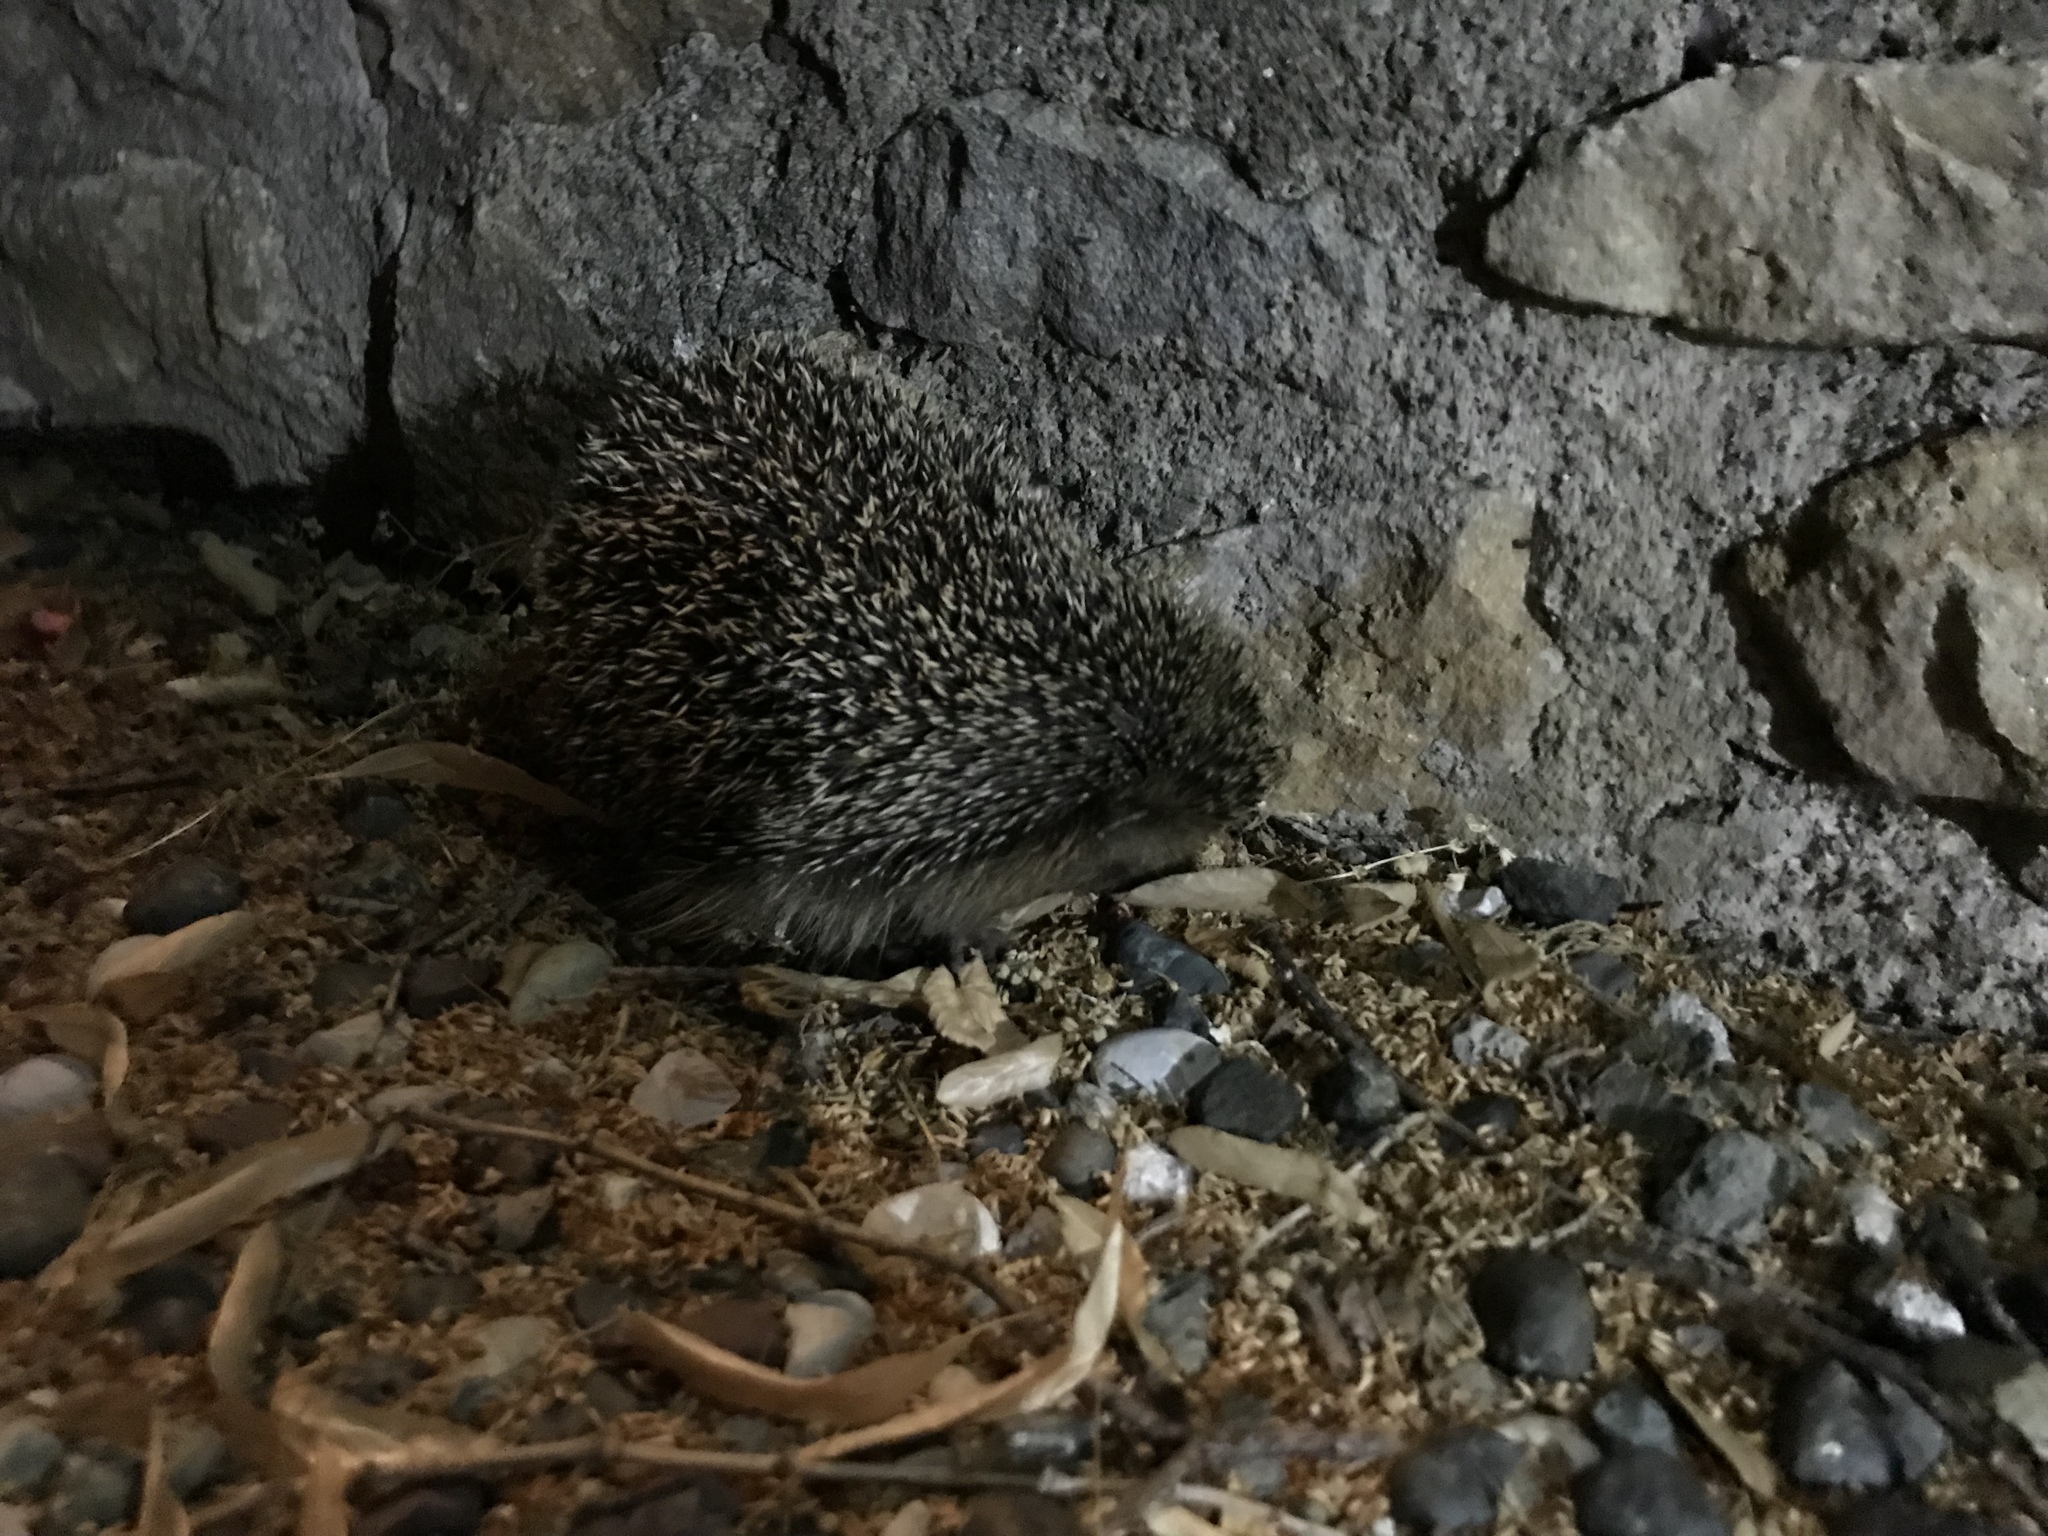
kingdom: Animalia
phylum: Chordata
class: Mammalia
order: Erinaceomorpha
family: Erinaceidae
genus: Erinaceus
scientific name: Erinaceus europaeus
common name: West european hedgehog
